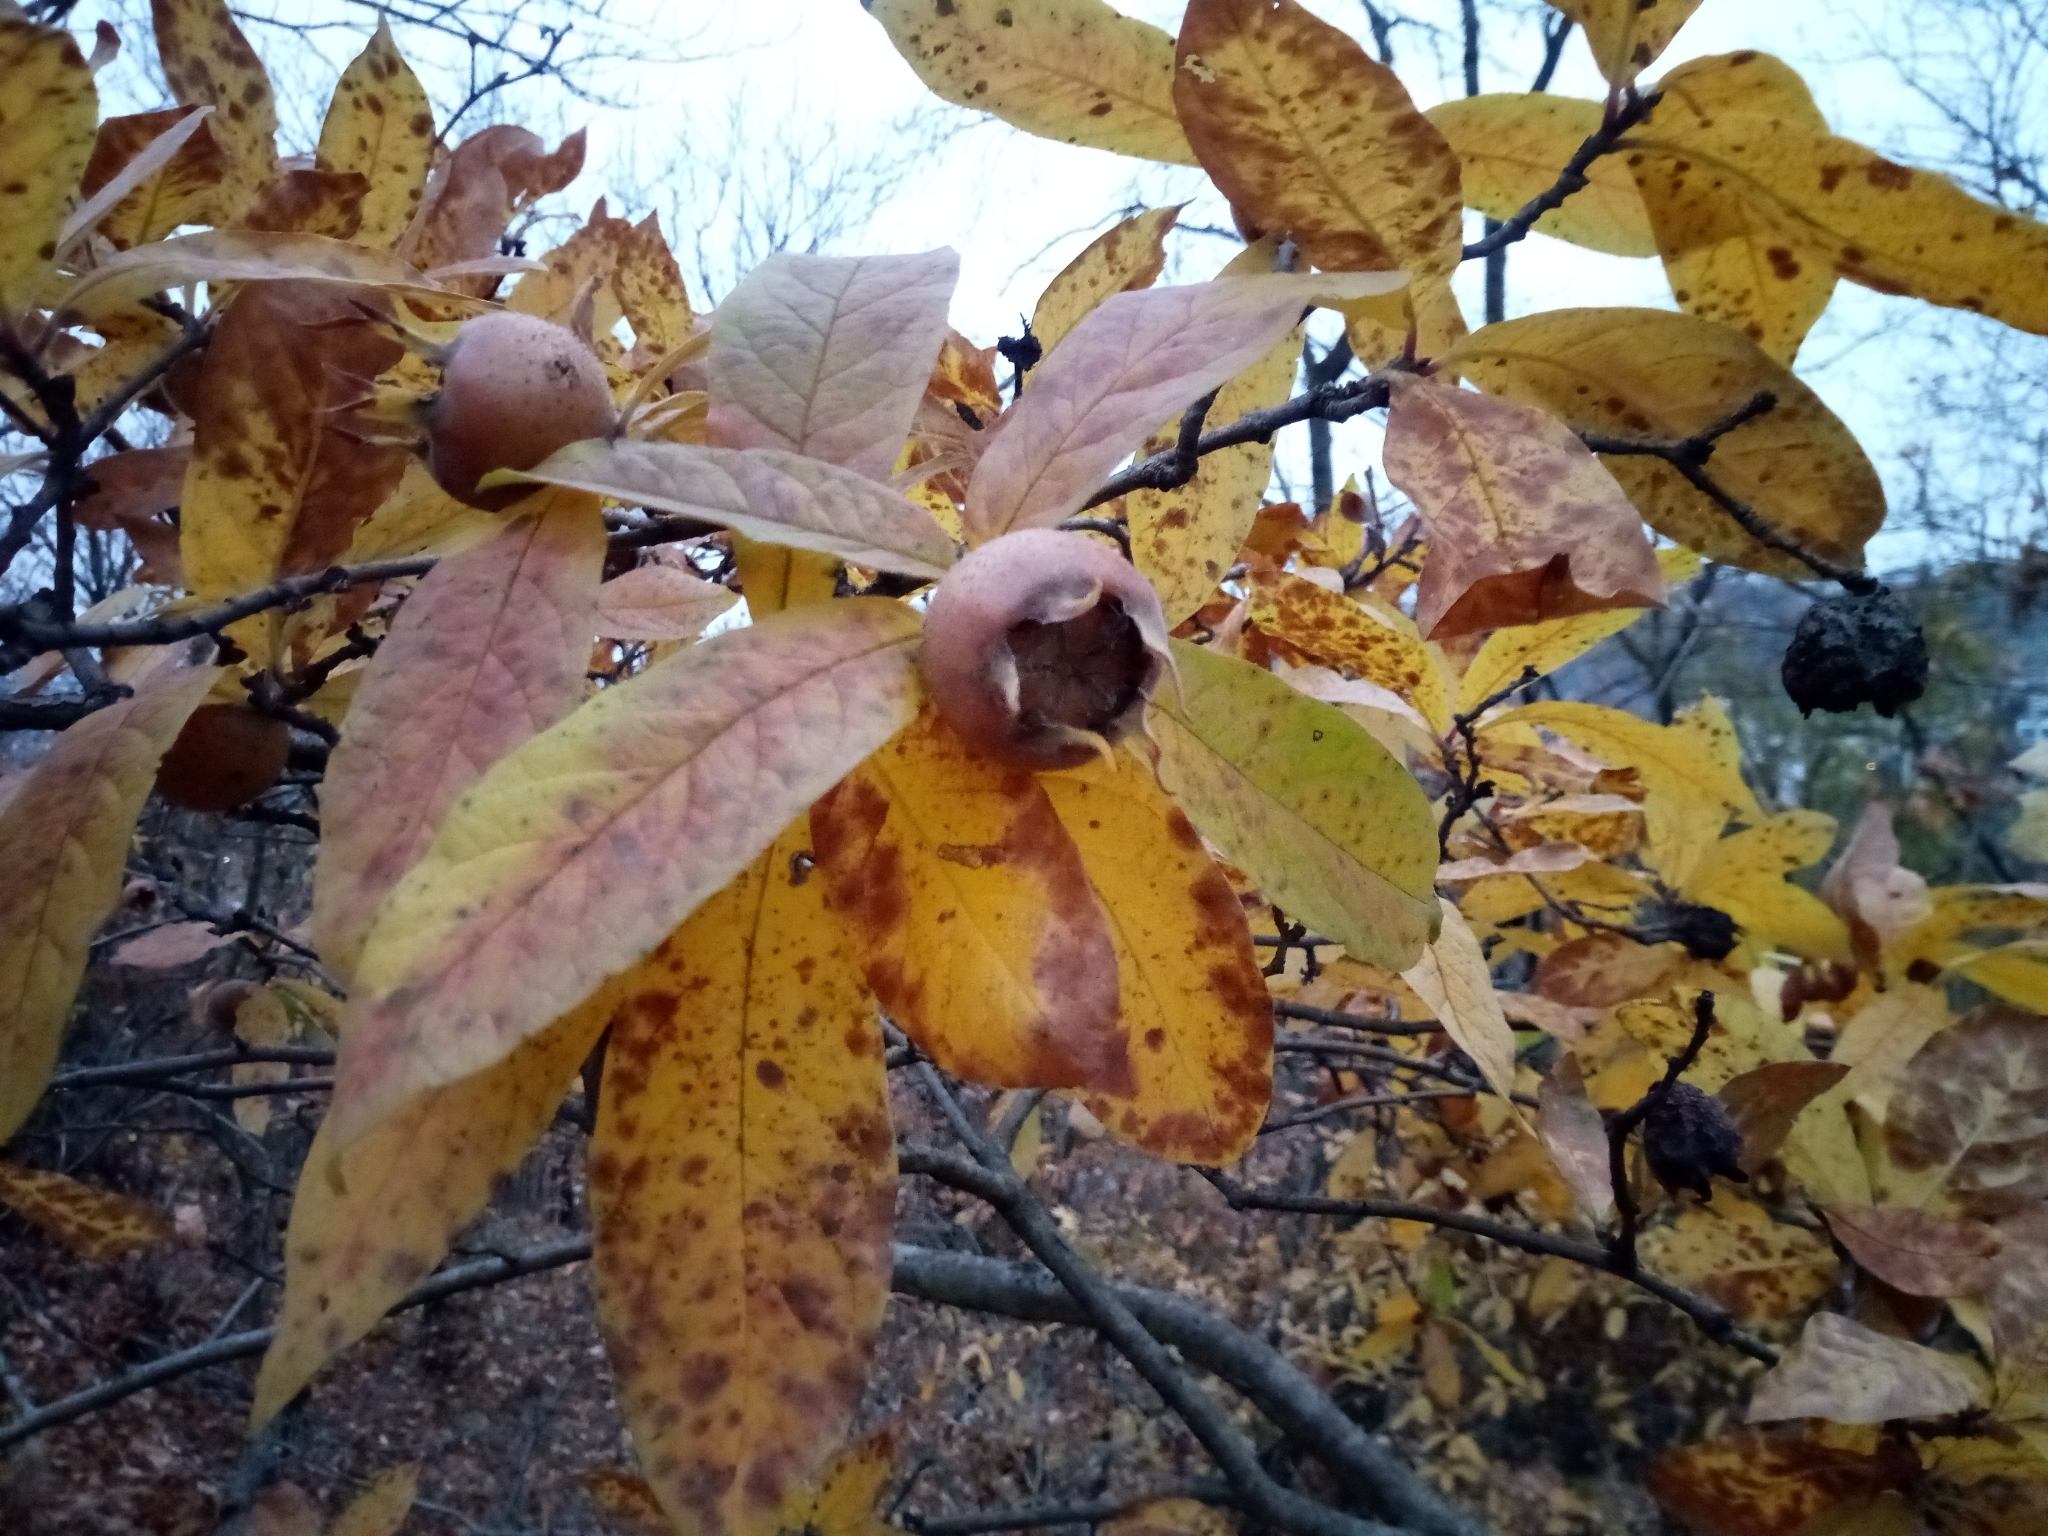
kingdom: Plantae
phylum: Tracheophyta
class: Magnoliopsida
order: Rosales
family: Rosaceae
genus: Mespilus
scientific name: Mespilus germanica
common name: Medlar
